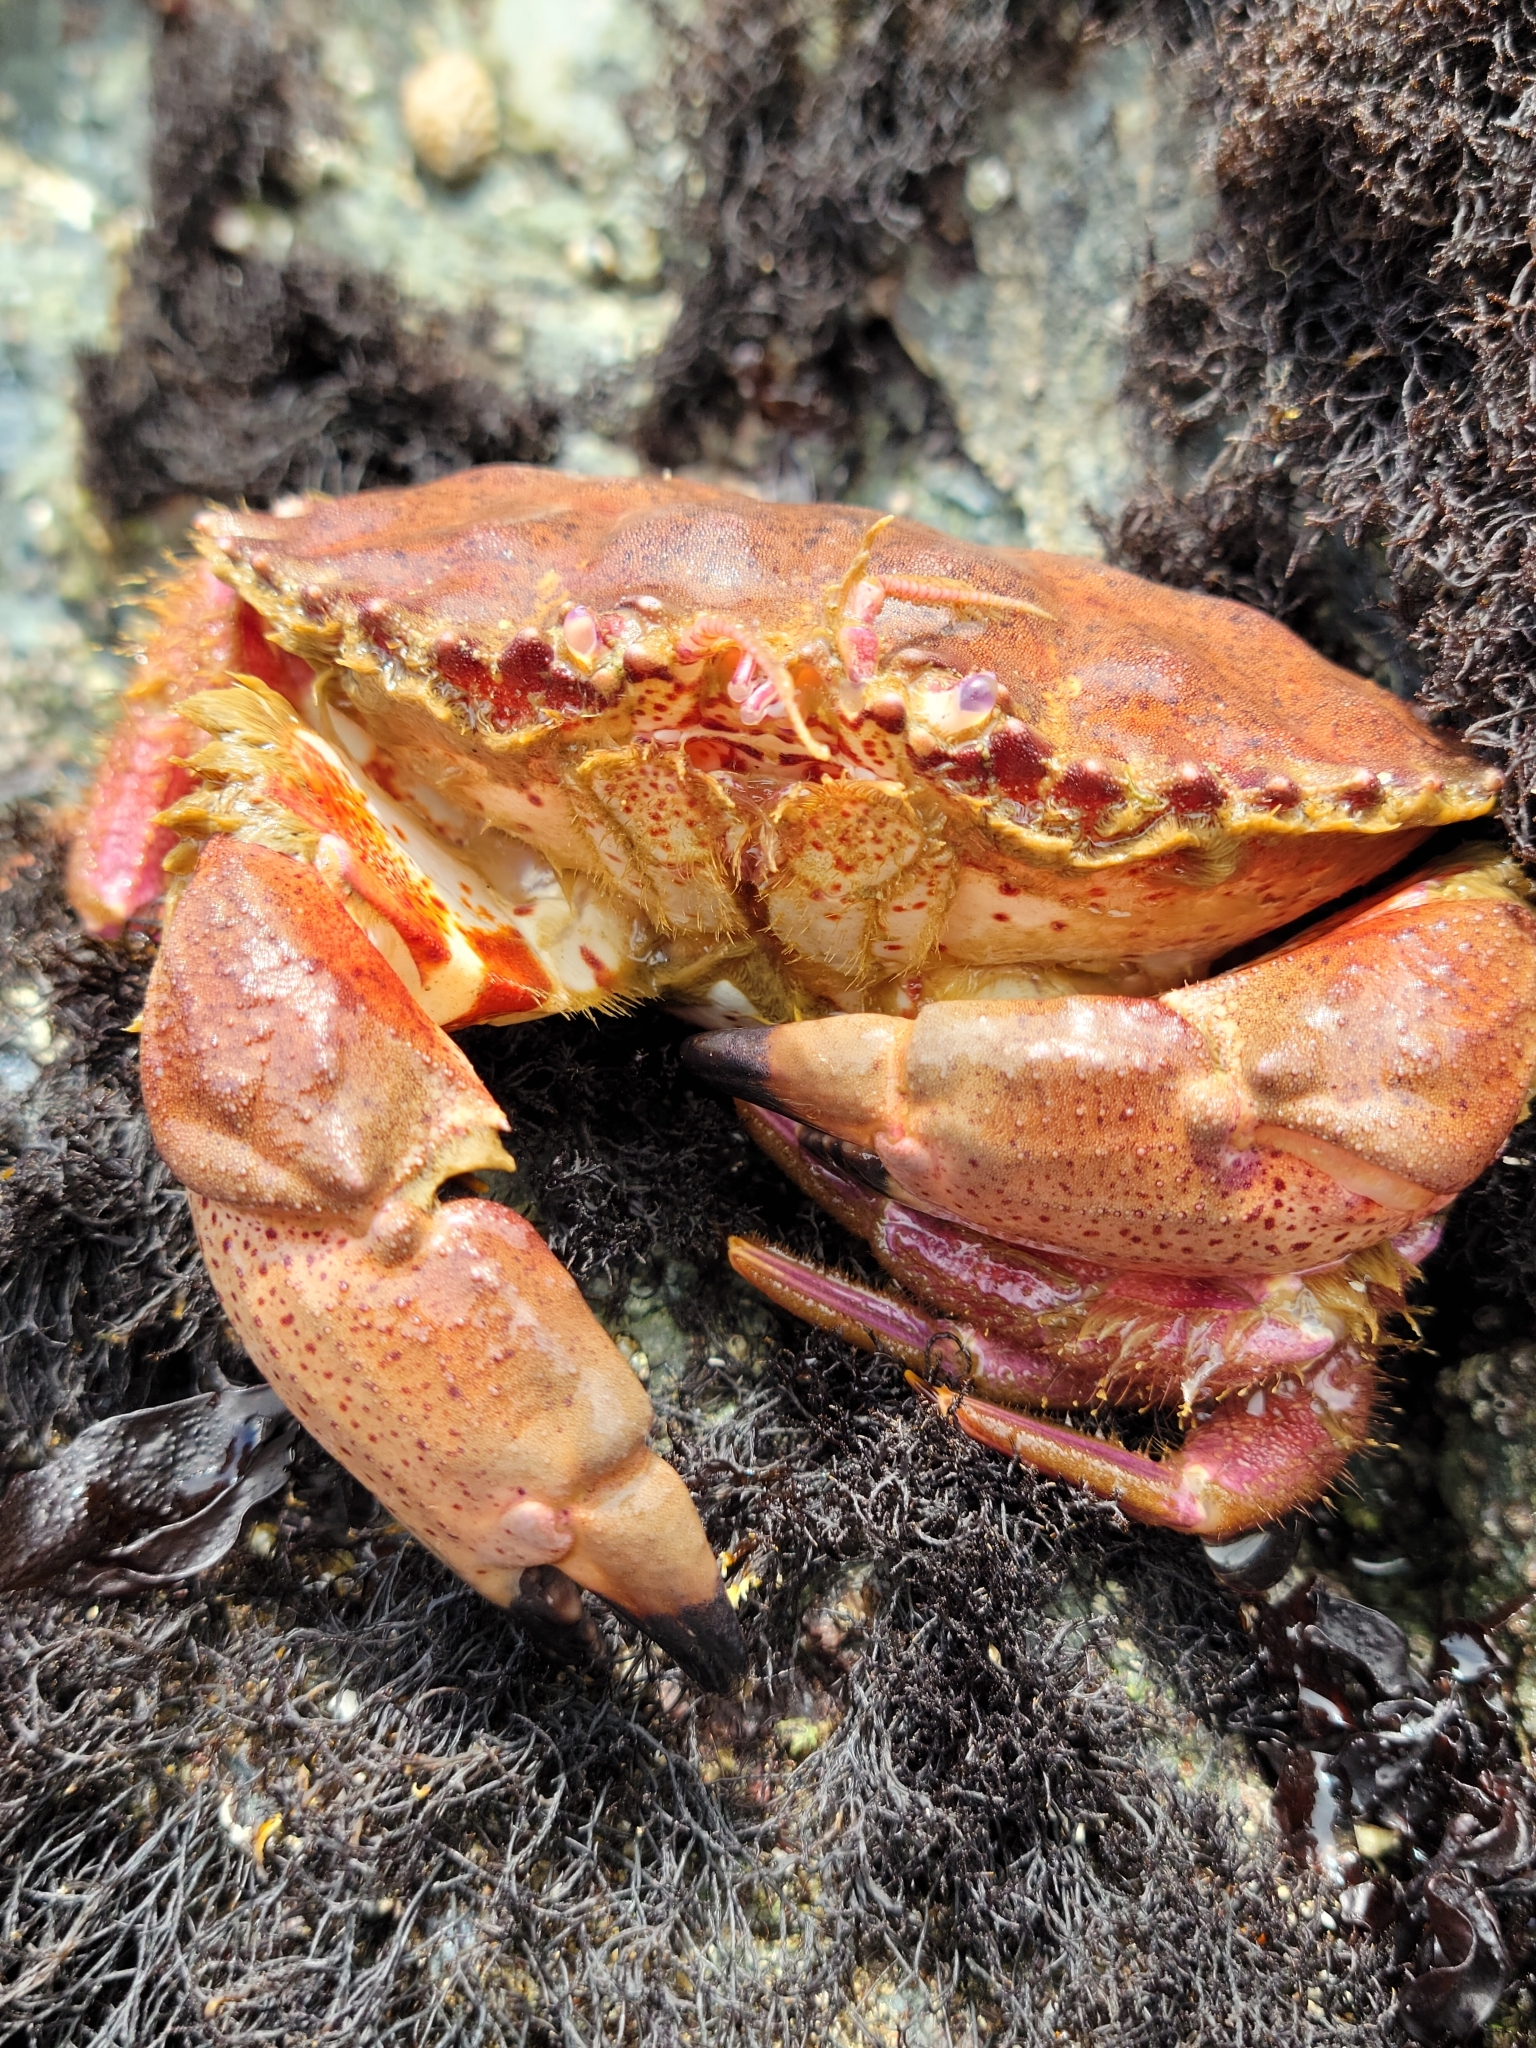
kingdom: Animalia
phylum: Arthropoda
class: Malacostraca
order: Decapoda
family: Cancridae
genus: Romaleon
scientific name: Romaleon antennarium
